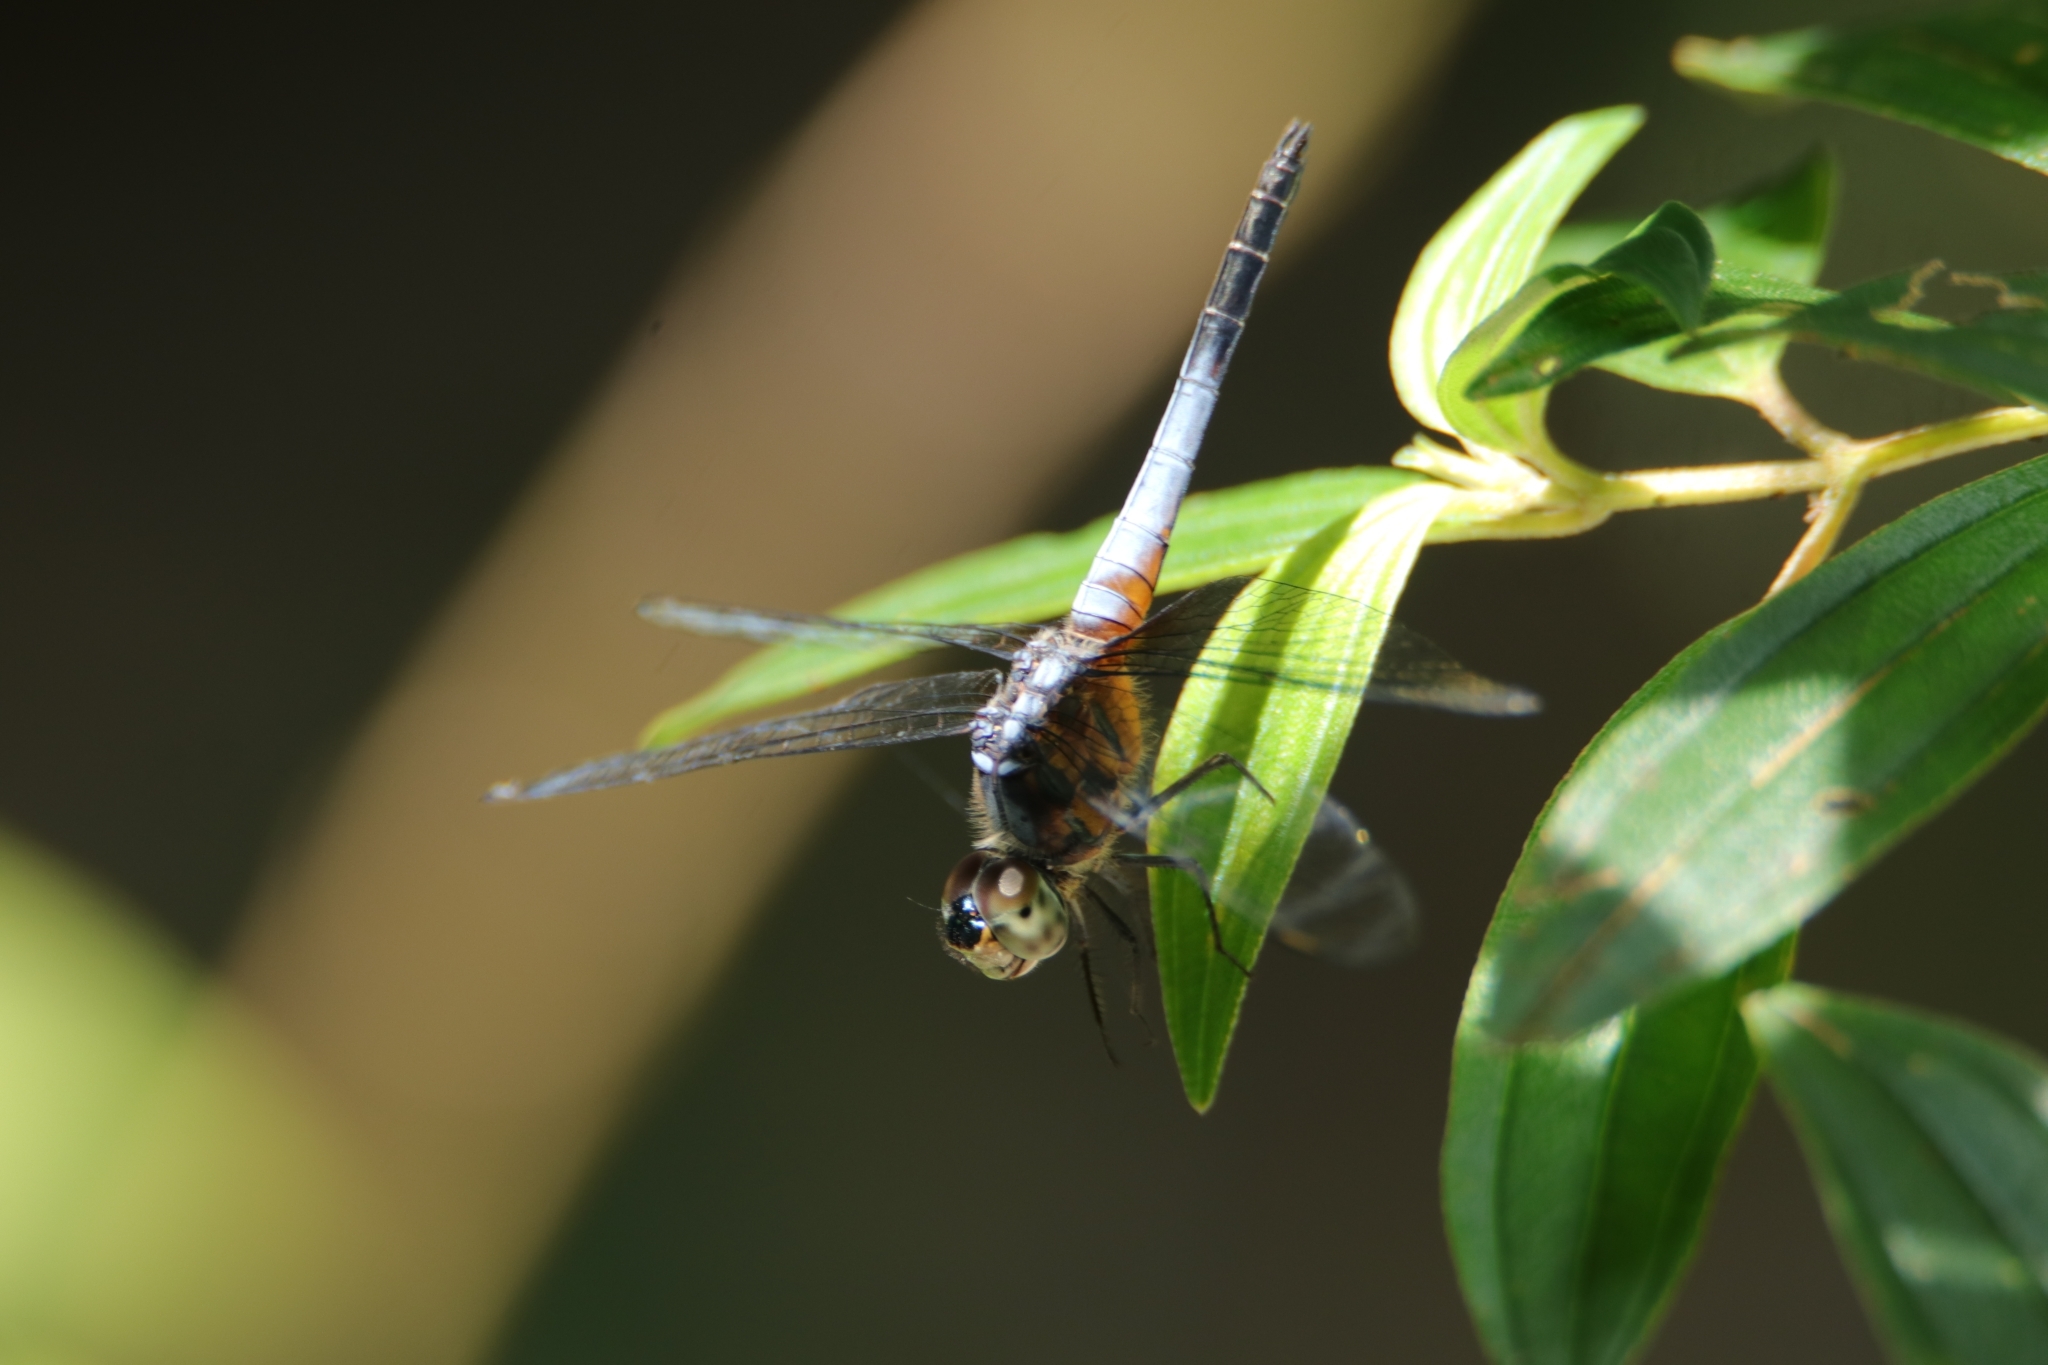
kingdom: Animalia
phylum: Arthropoda
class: Insecta
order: Odonata
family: Libellulidae
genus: Brachydiplax
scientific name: Brachydiplax chalybea
